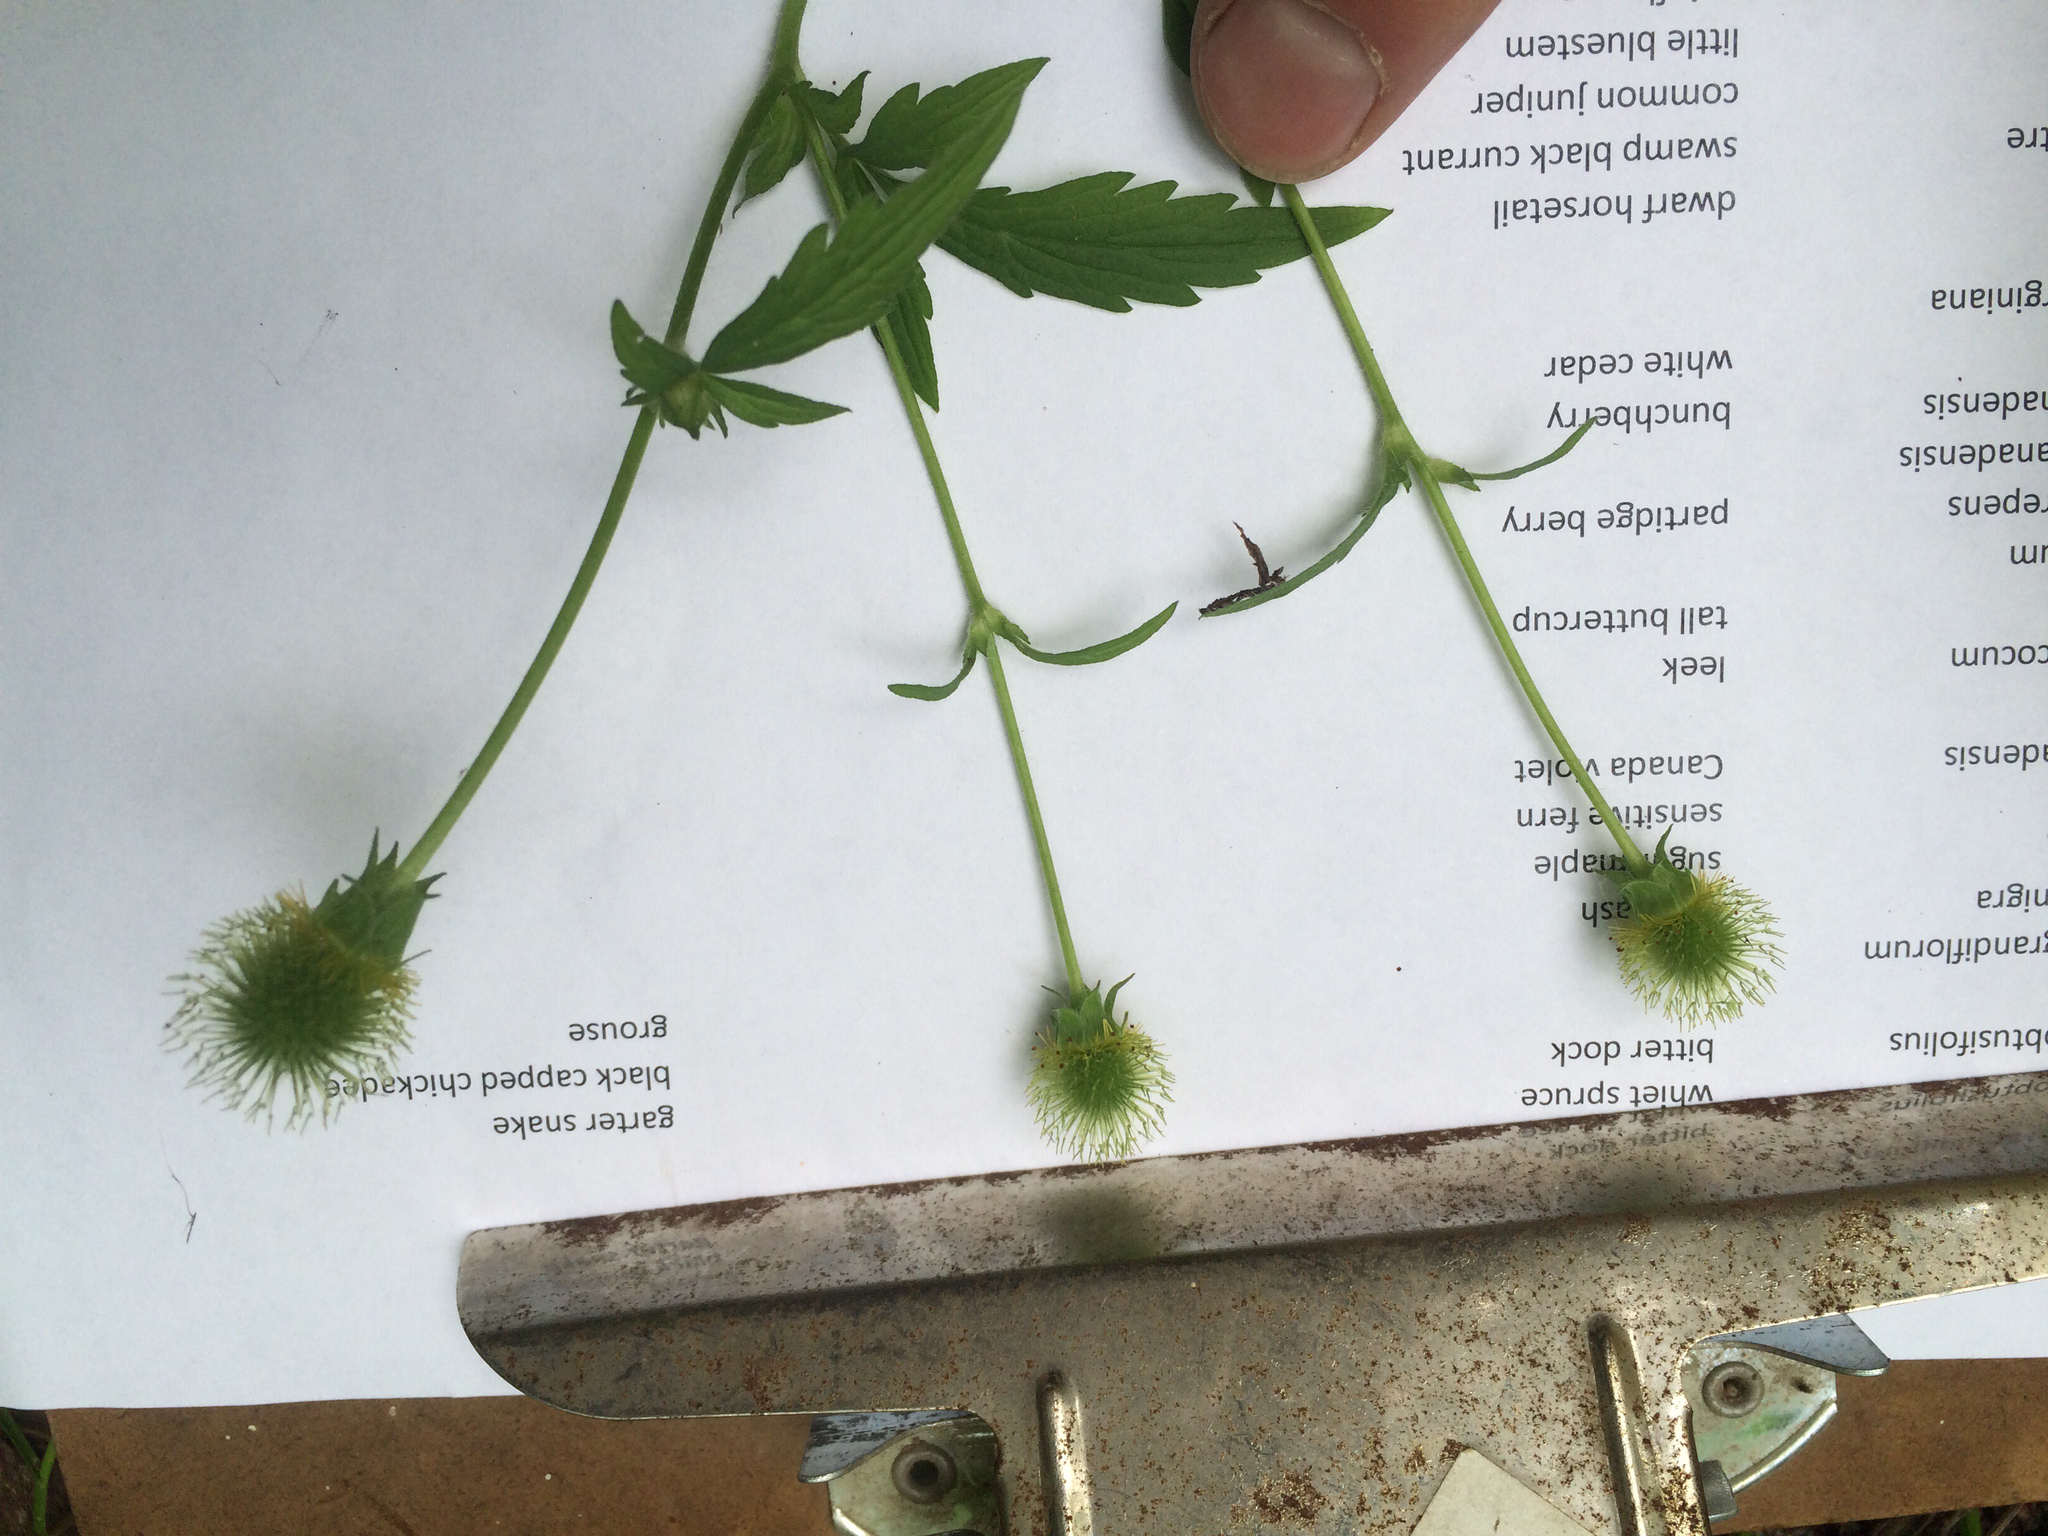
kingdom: Plantae
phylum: Tracheophyta
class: Magnoliopsida
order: Rosales
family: Rosaceae
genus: Geum
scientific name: Geum aleppicum
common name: Yellow avens
